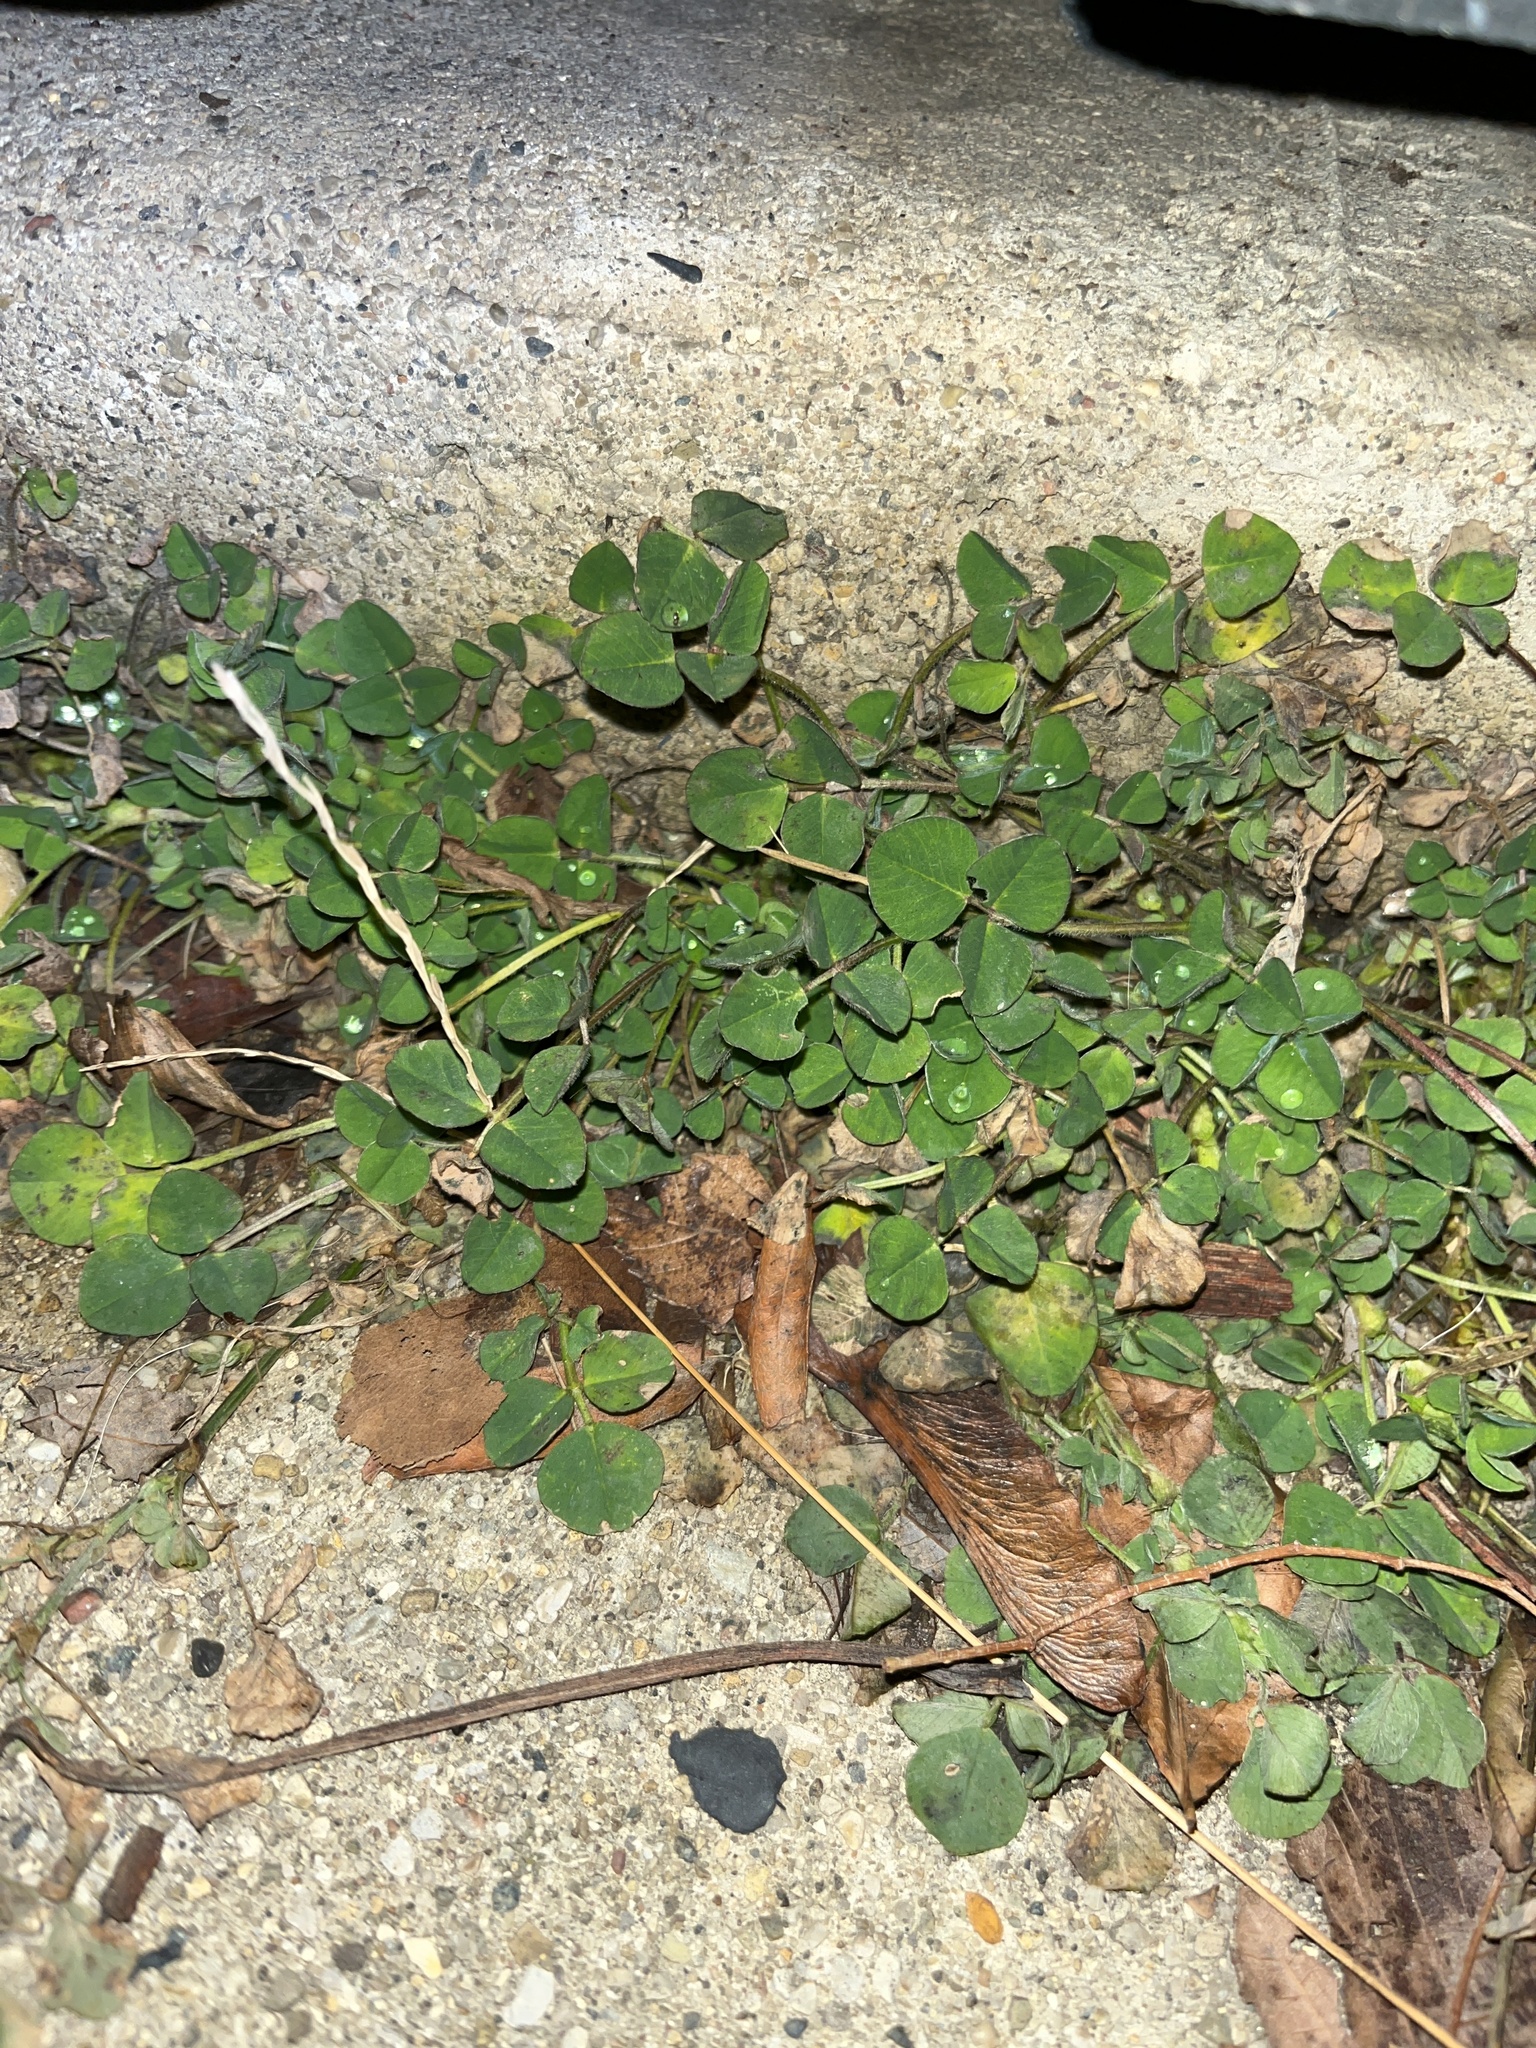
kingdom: Plantae
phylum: Tracheophyta
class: Magnoliopsida
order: Fabales
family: Fabaceae
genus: Medicago
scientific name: Medicago lupulina
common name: Black medick
